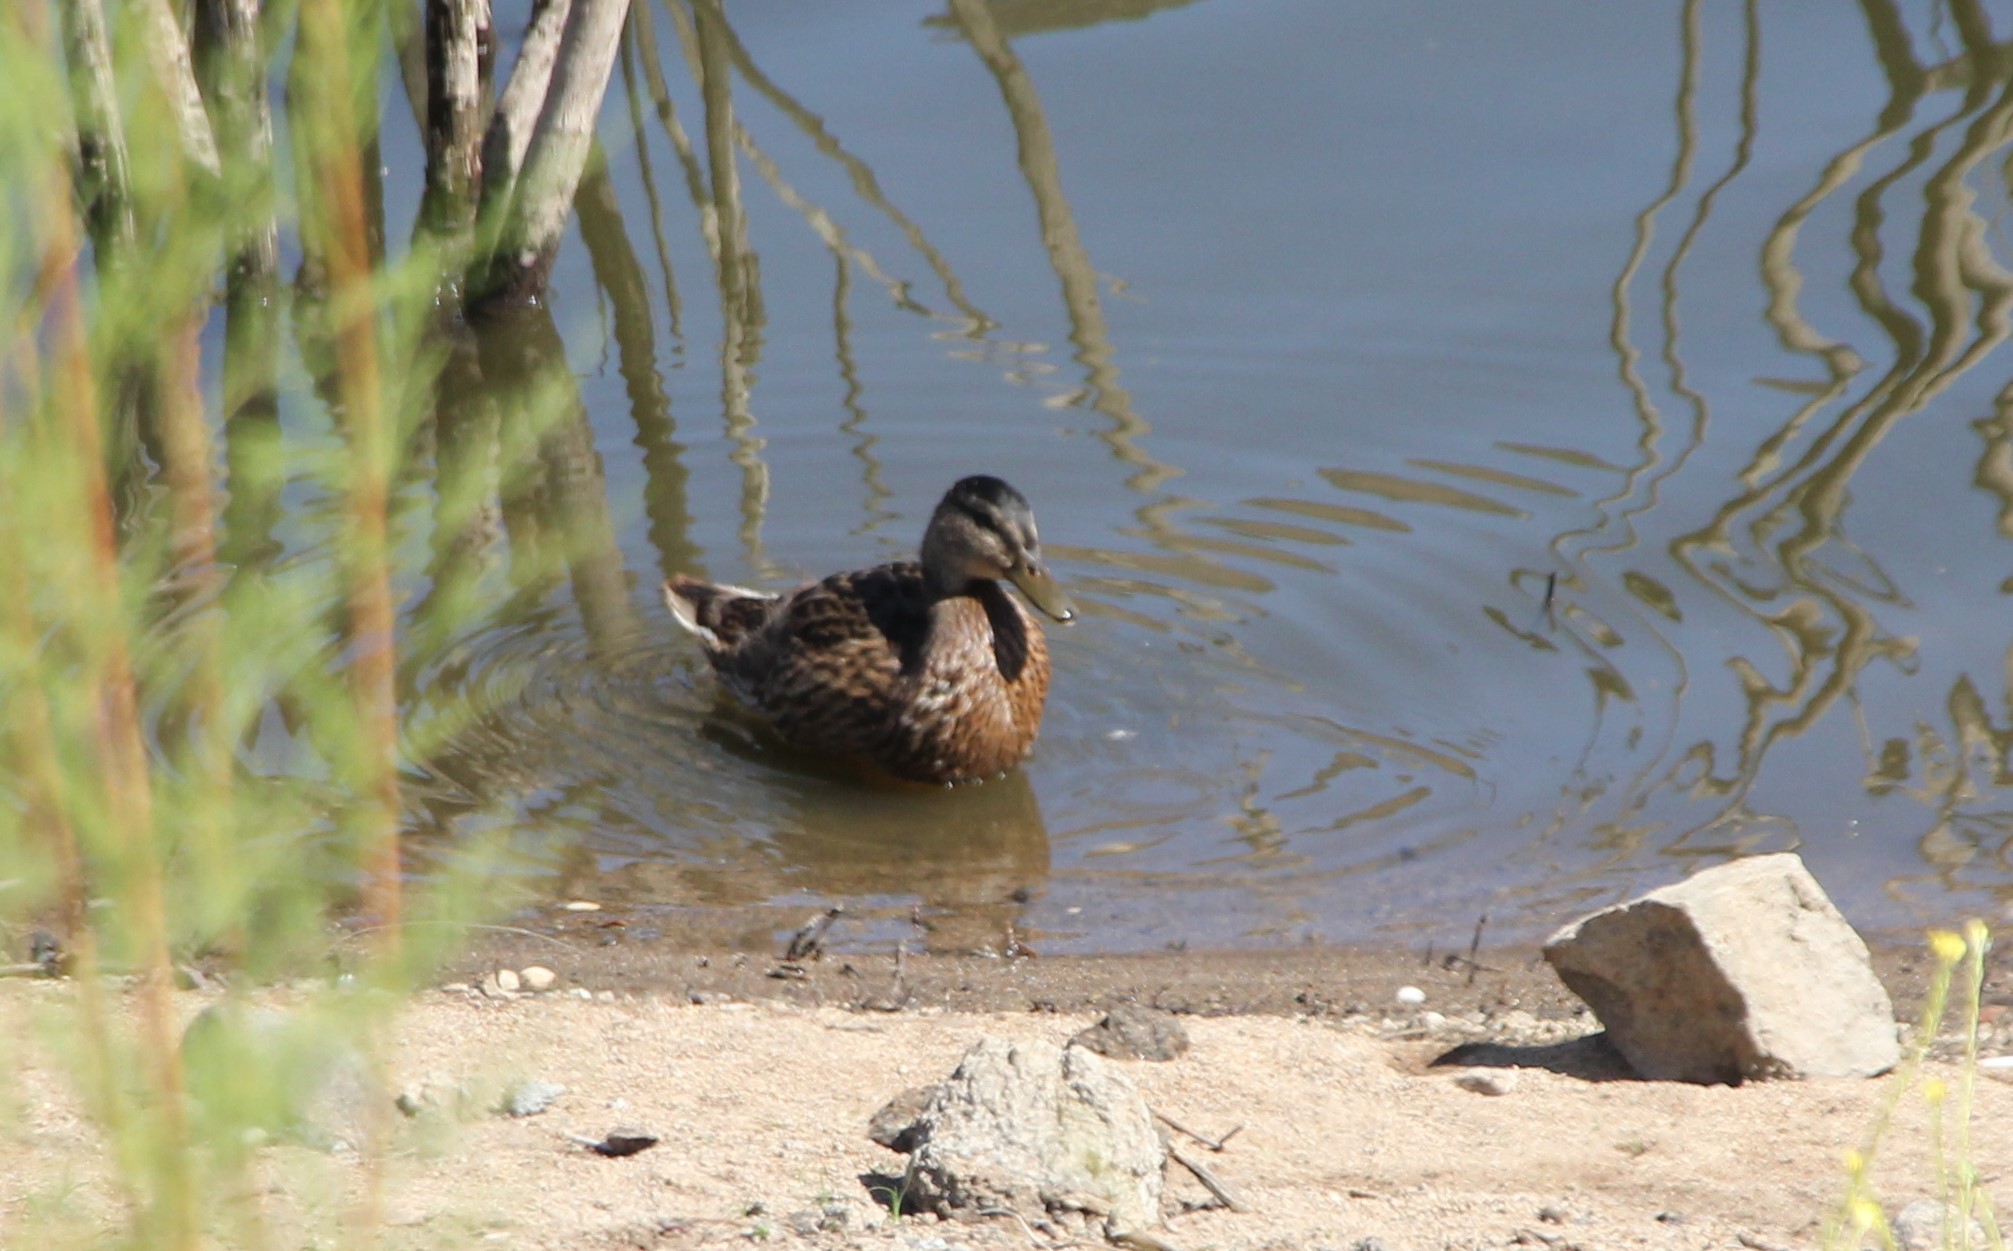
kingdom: Animalia
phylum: Chordata
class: Aves
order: Anseriformes
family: Anatidae
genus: Anas
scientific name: Anas platyrhynchos
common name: Mallard
